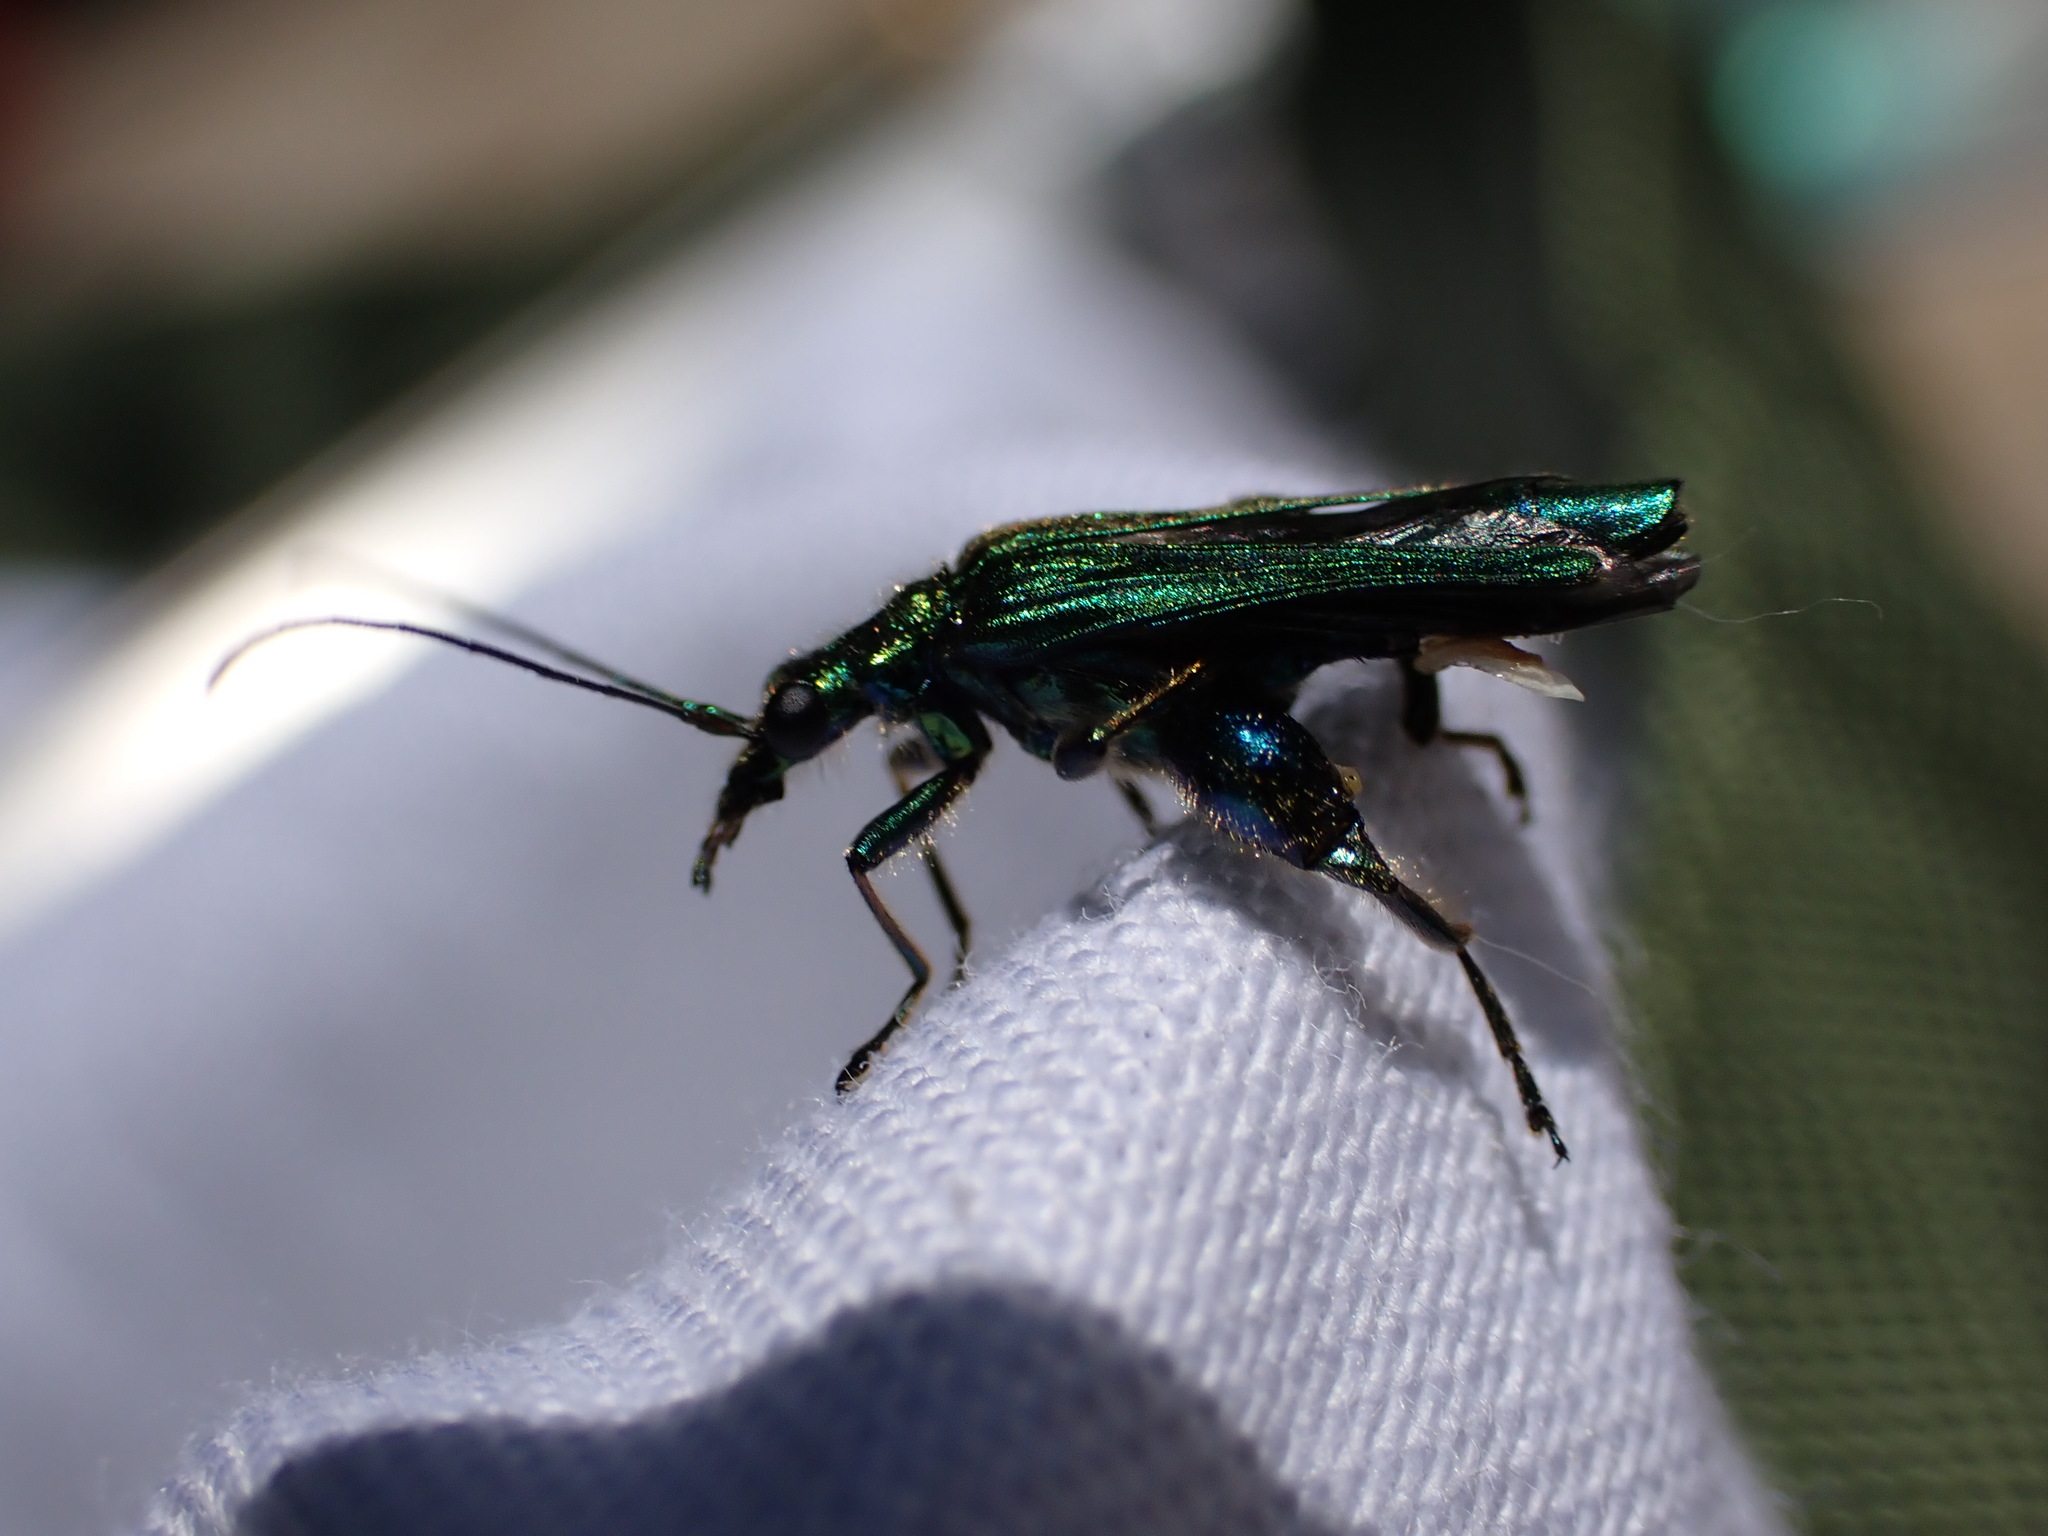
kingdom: Animalia
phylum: Arthropoda
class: Insecta
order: Coleoptera
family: Oedemeridae
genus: Oedemera
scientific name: Oedemera nobilis
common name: Swollen-thighed beetle
